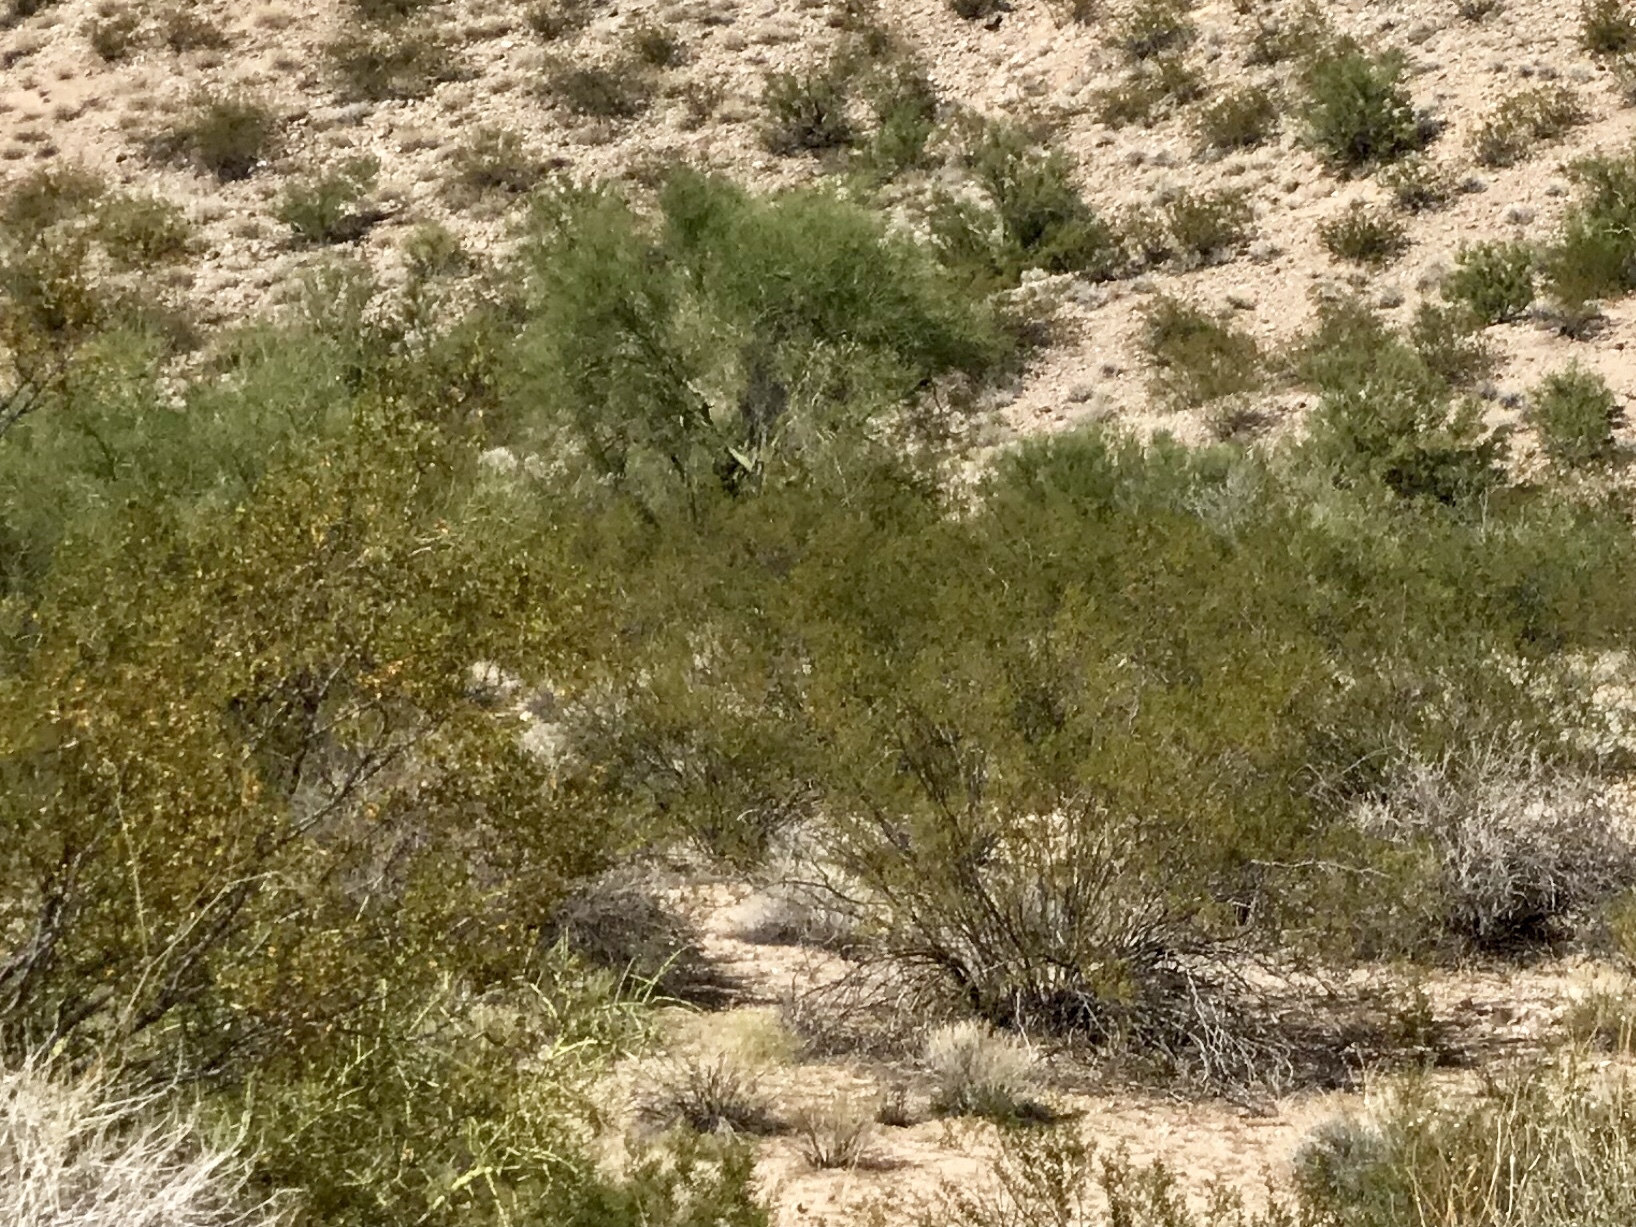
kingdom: Plantae
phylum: Tracheophyta
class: Magnoliopsida
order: Zygophyllales
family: Zygophyllaceae
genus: Larrea
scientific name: Larrea tridentata
